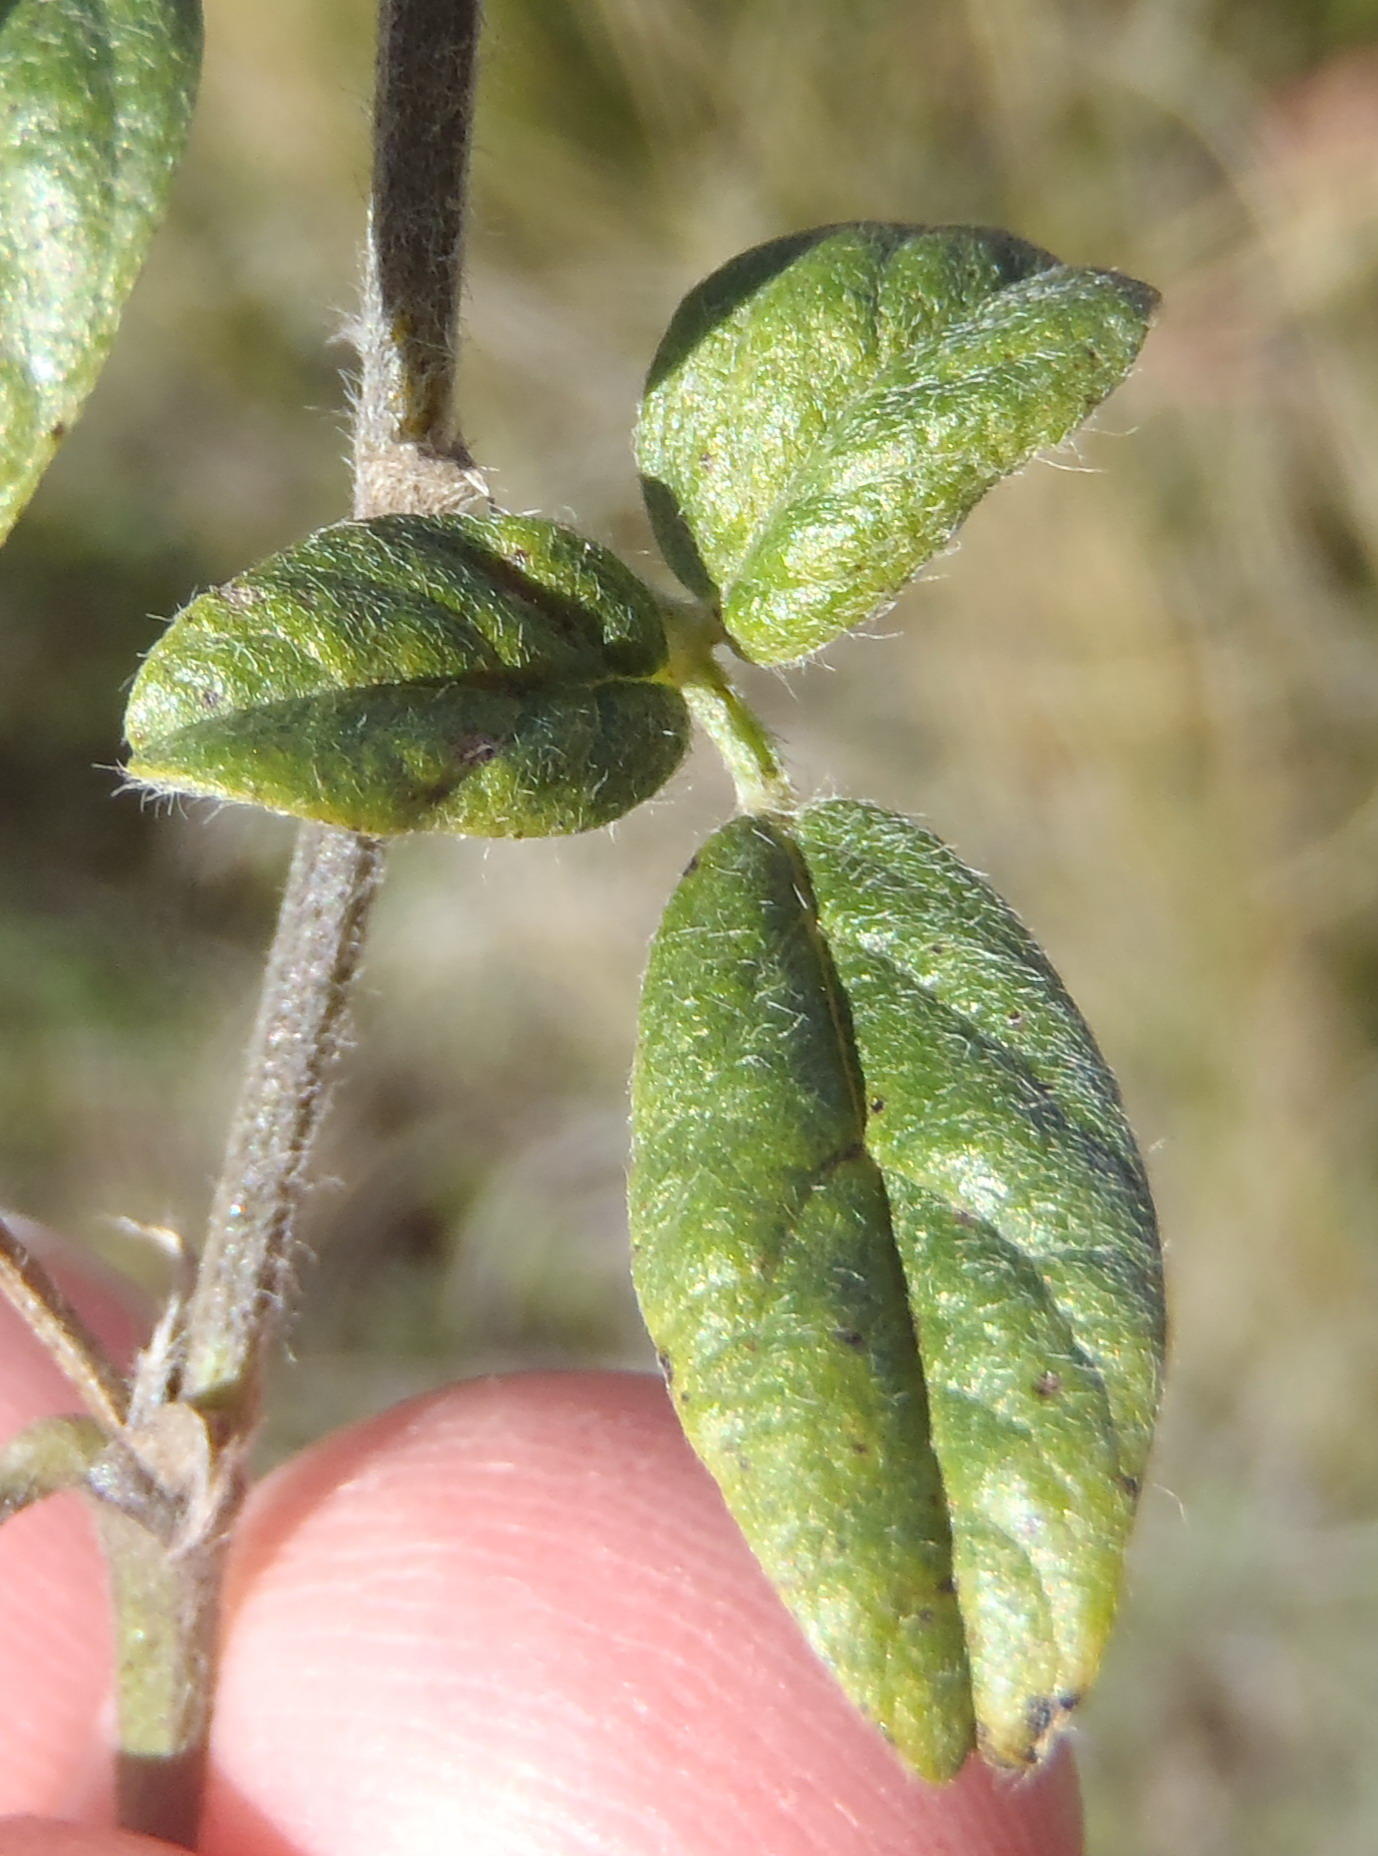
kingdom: Plantae
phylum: Tracheophyta
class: Magnoliopsida
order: Fabales
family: Fabaceae
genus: Psoralea
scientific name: Psoralea swartbergensis
